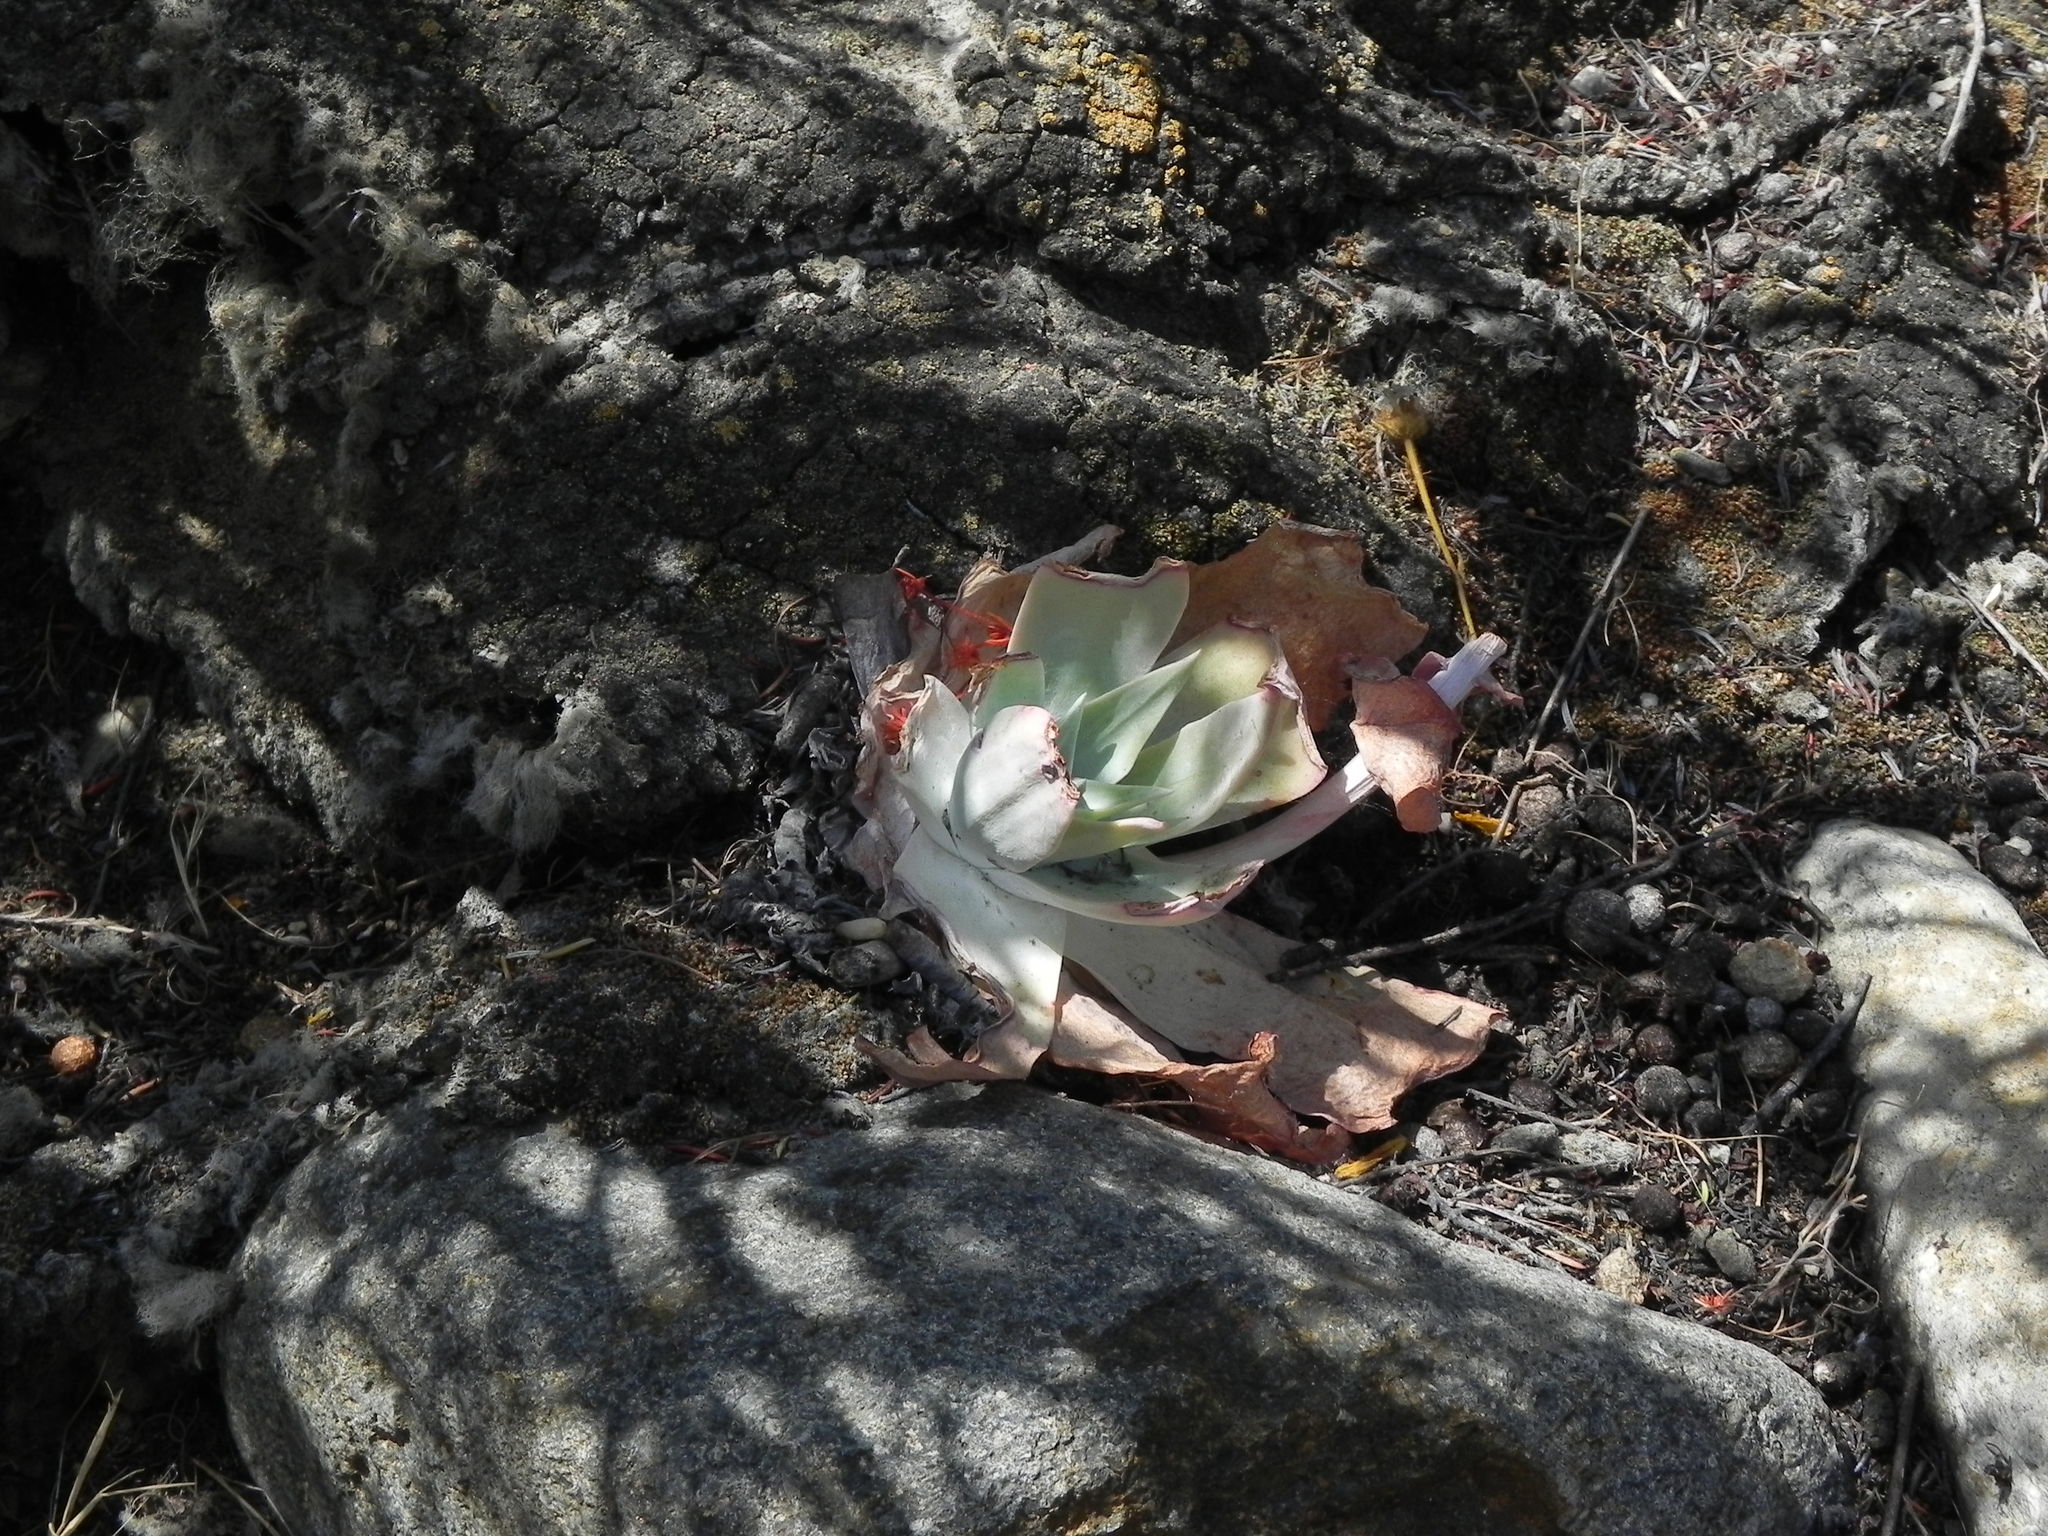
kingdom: Plantae
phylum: Tracheophyta
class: Magnoliopsida
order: Saxifragales
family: Crassulaceae
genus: Dudleya
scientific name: Dudleya pulverulenta
